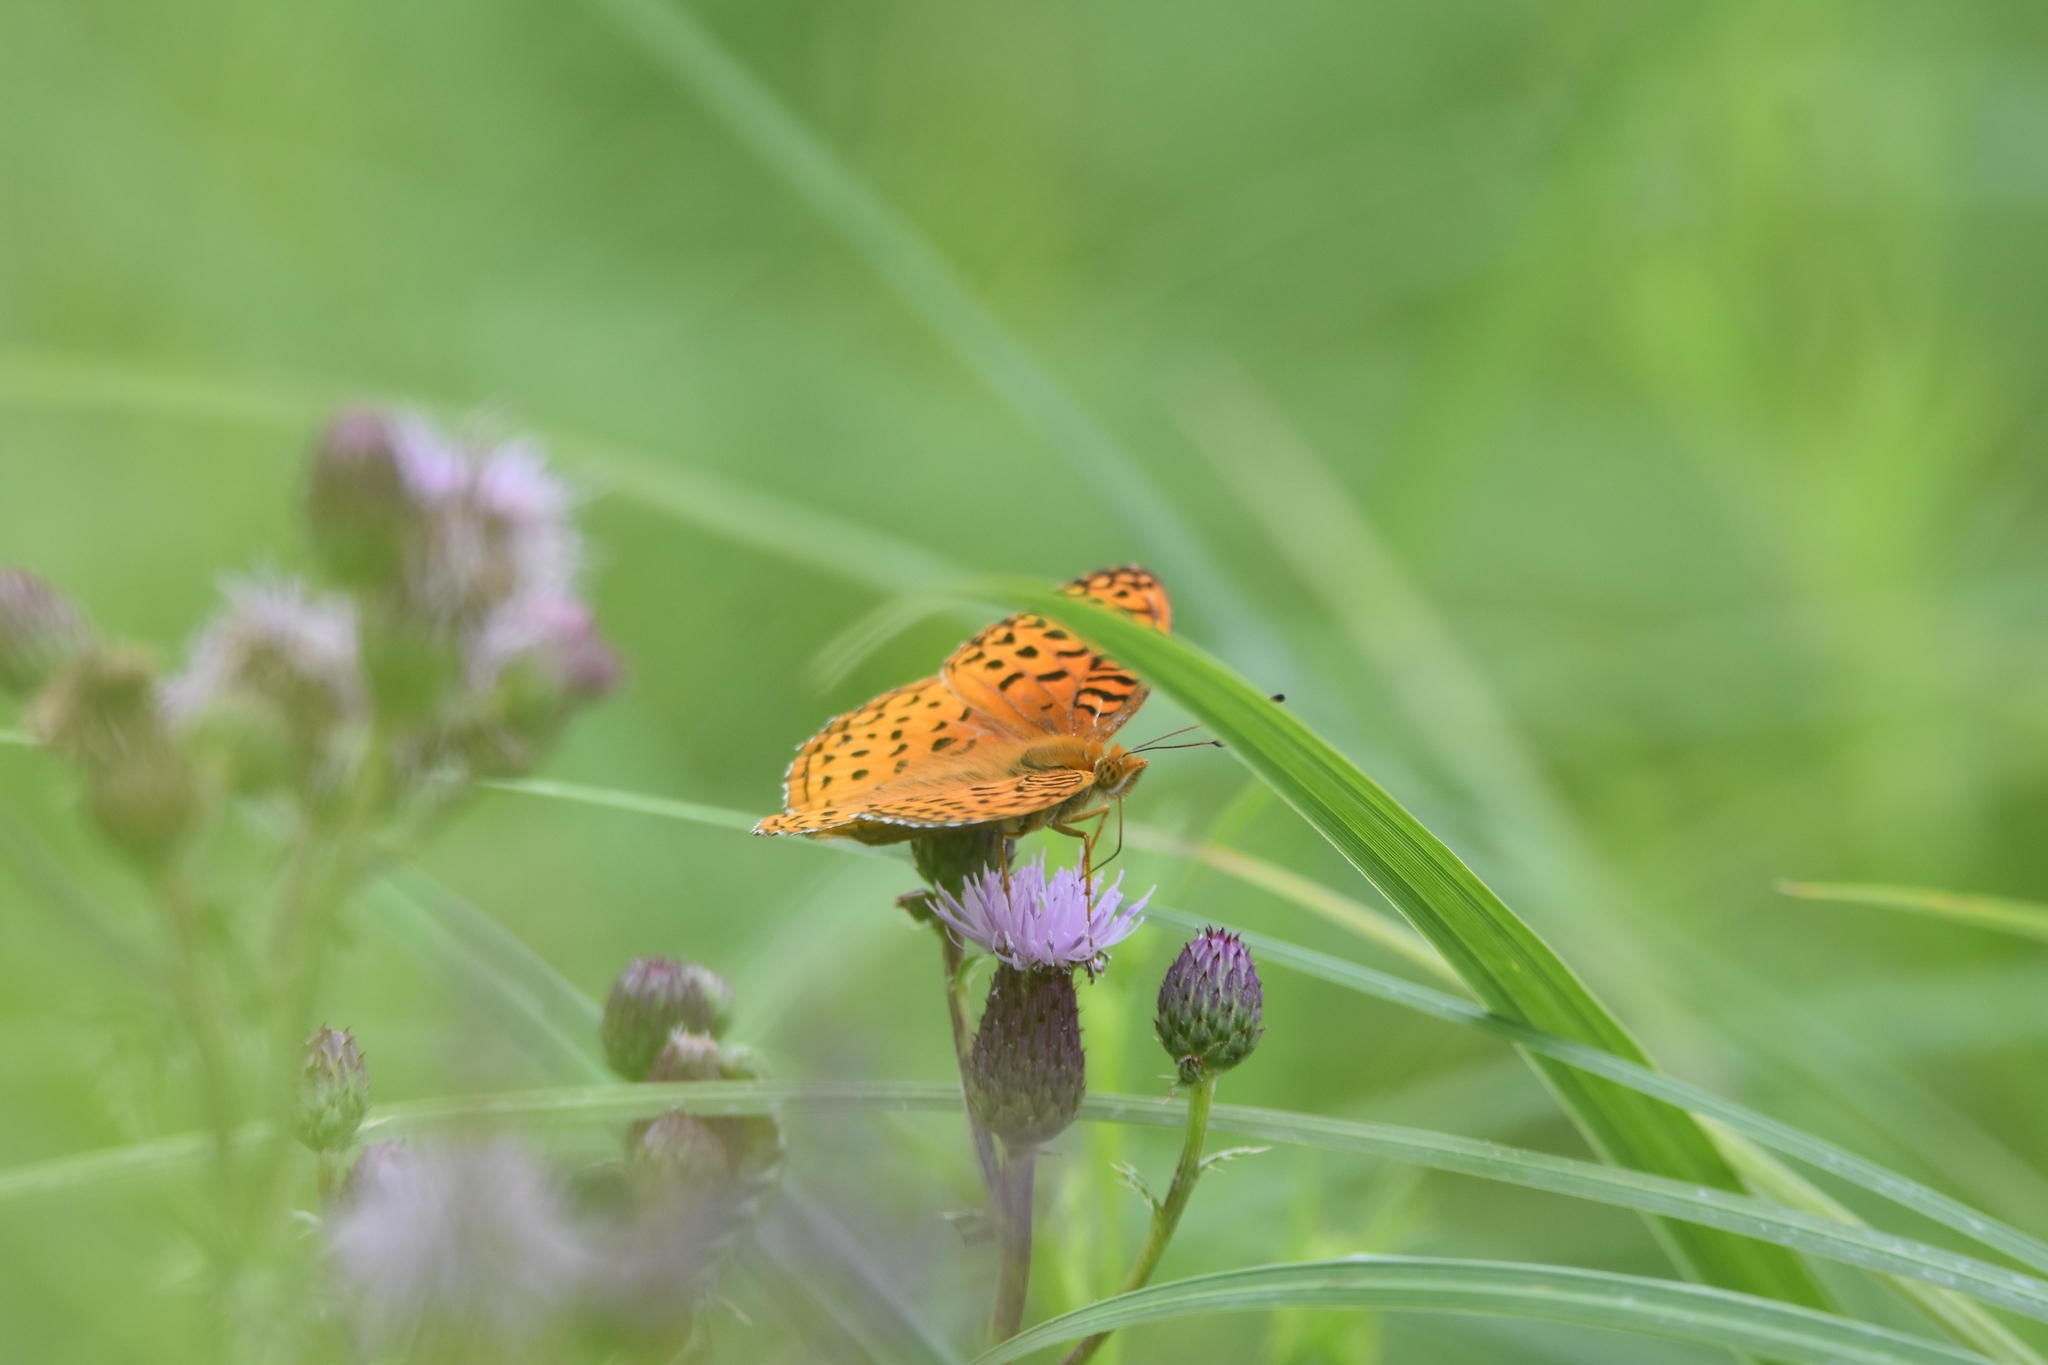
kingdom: Animalia
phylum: Arthropoda
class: Insecta
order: Lepidoptera
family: Nymphalidae
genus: Speyeria
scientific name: Speyeria aphrodite
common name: Aphrodite friitllary
